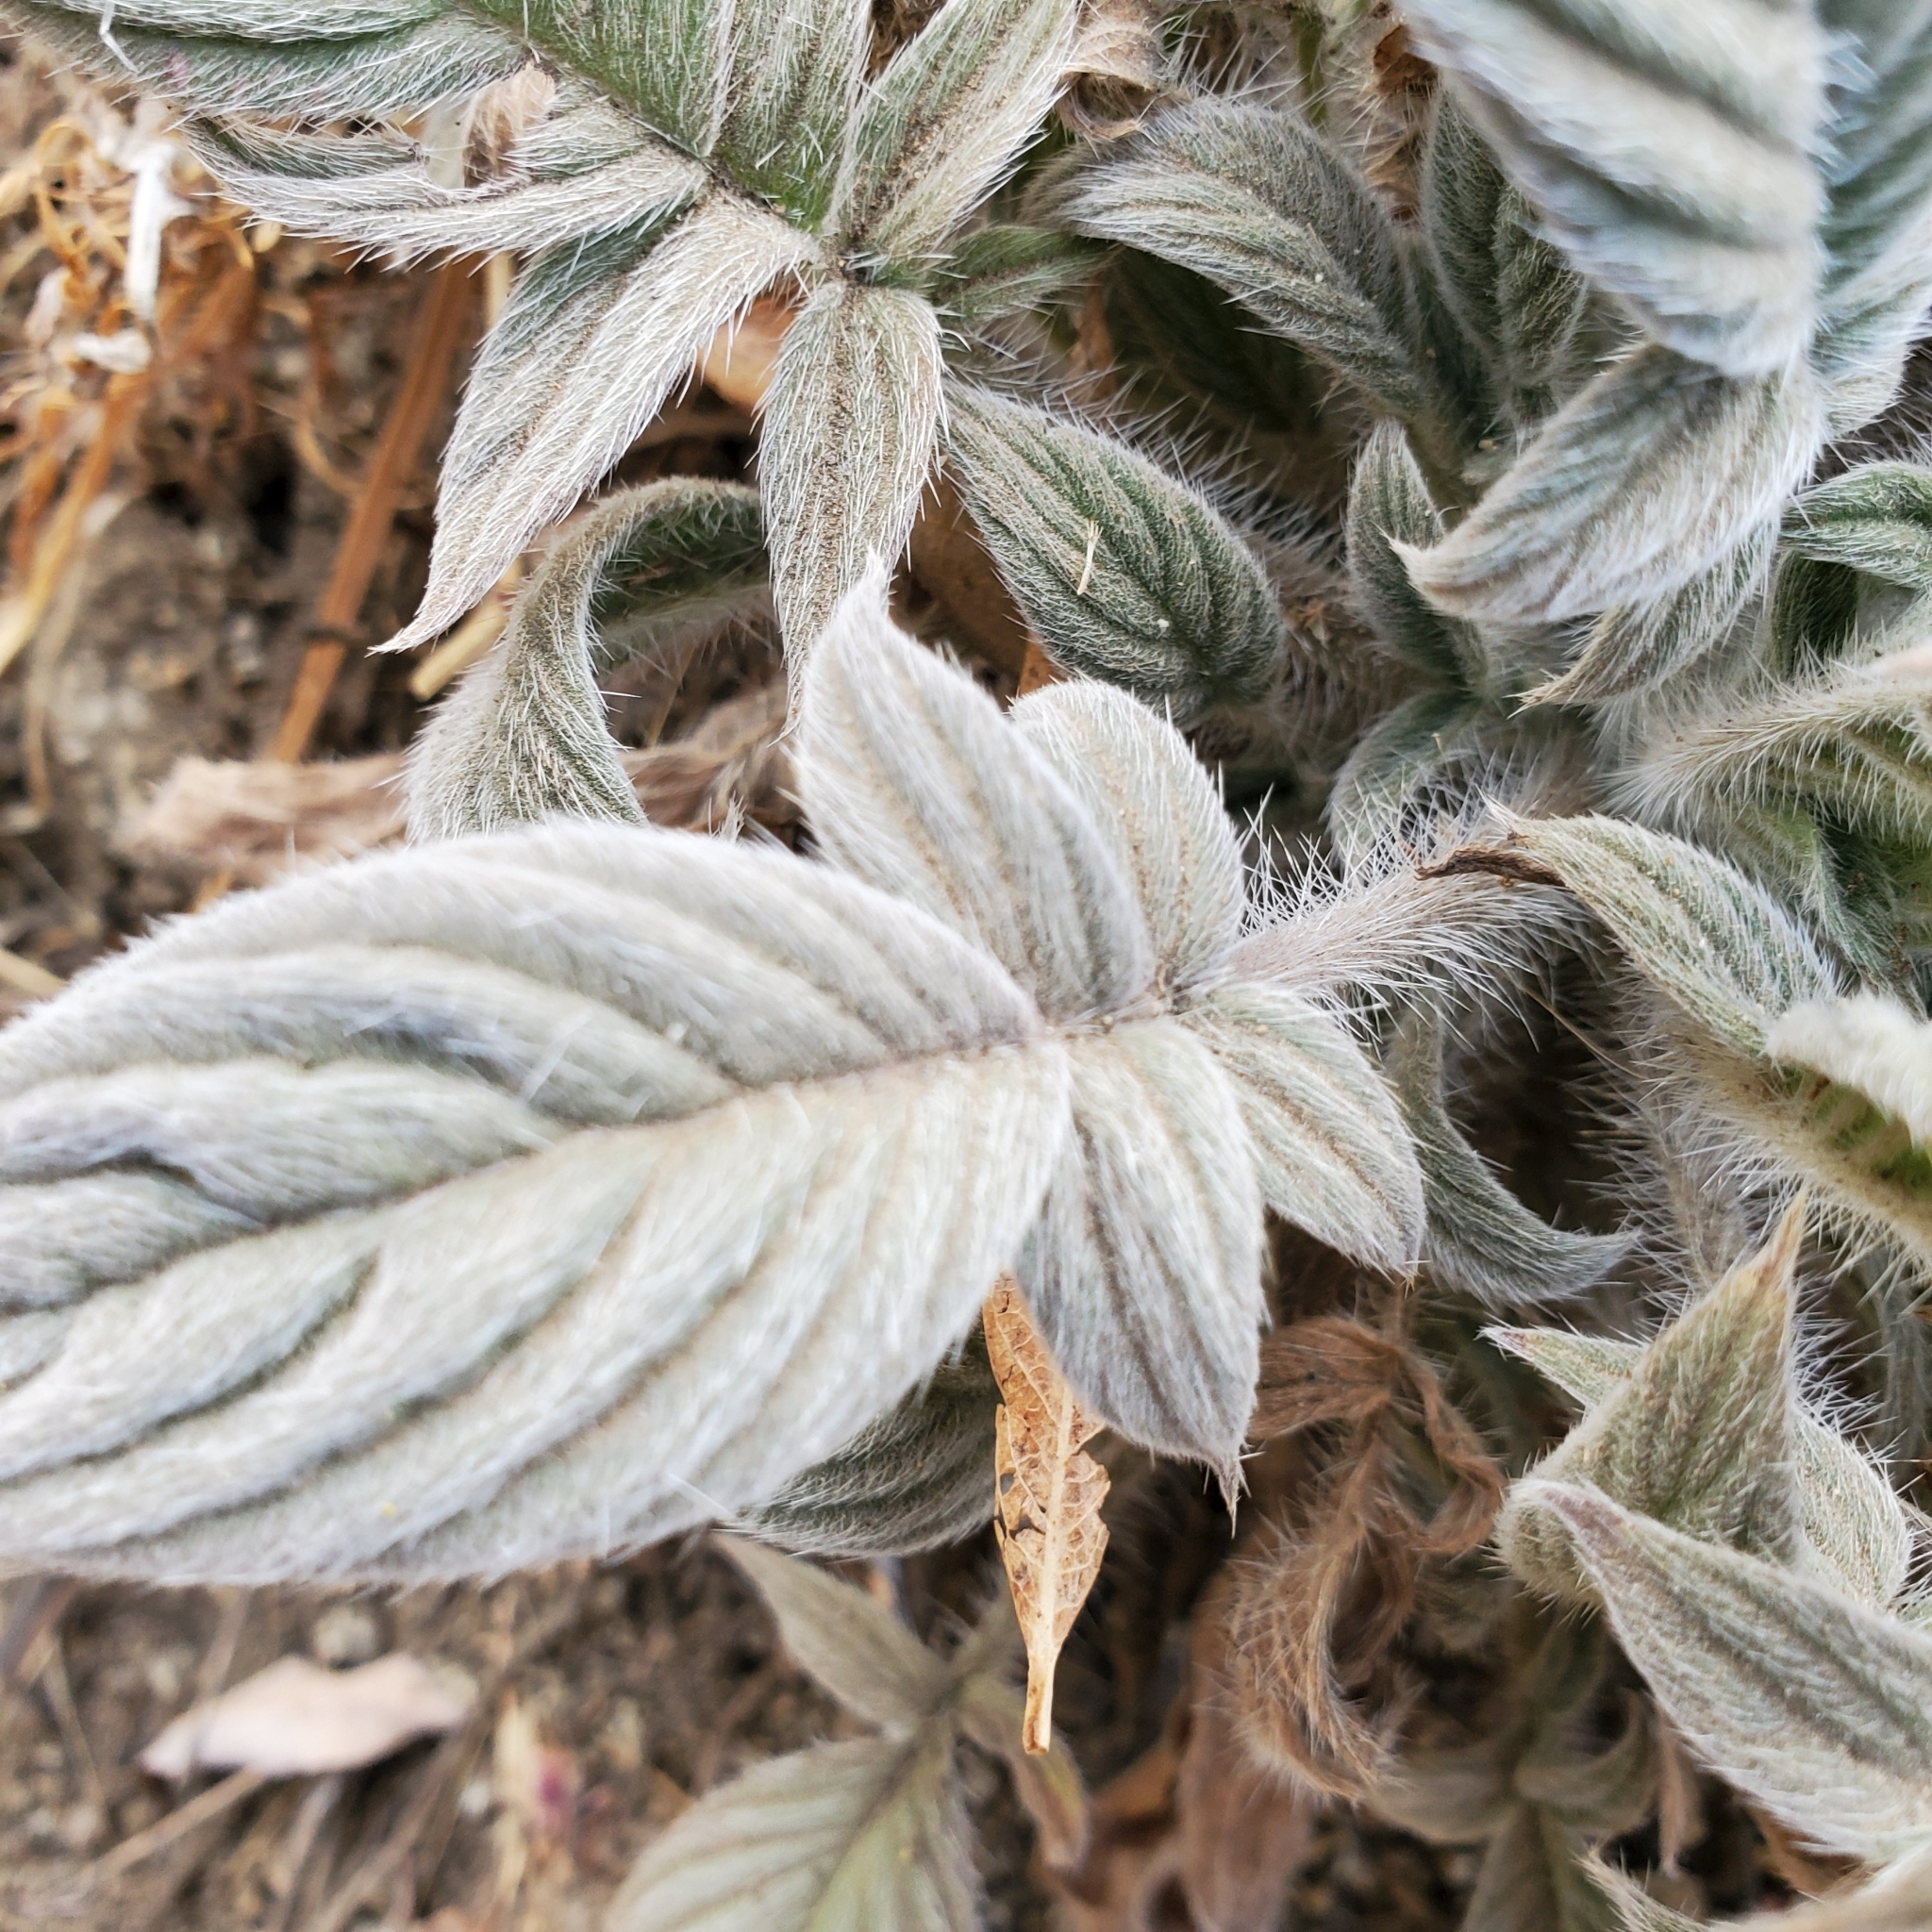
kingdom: Plantae
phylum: Tracheophyta
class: Magnoliopsida
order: Boraginales
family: Hydrophyllaceae
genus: Phacelia
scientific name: Phacelia imbricata
